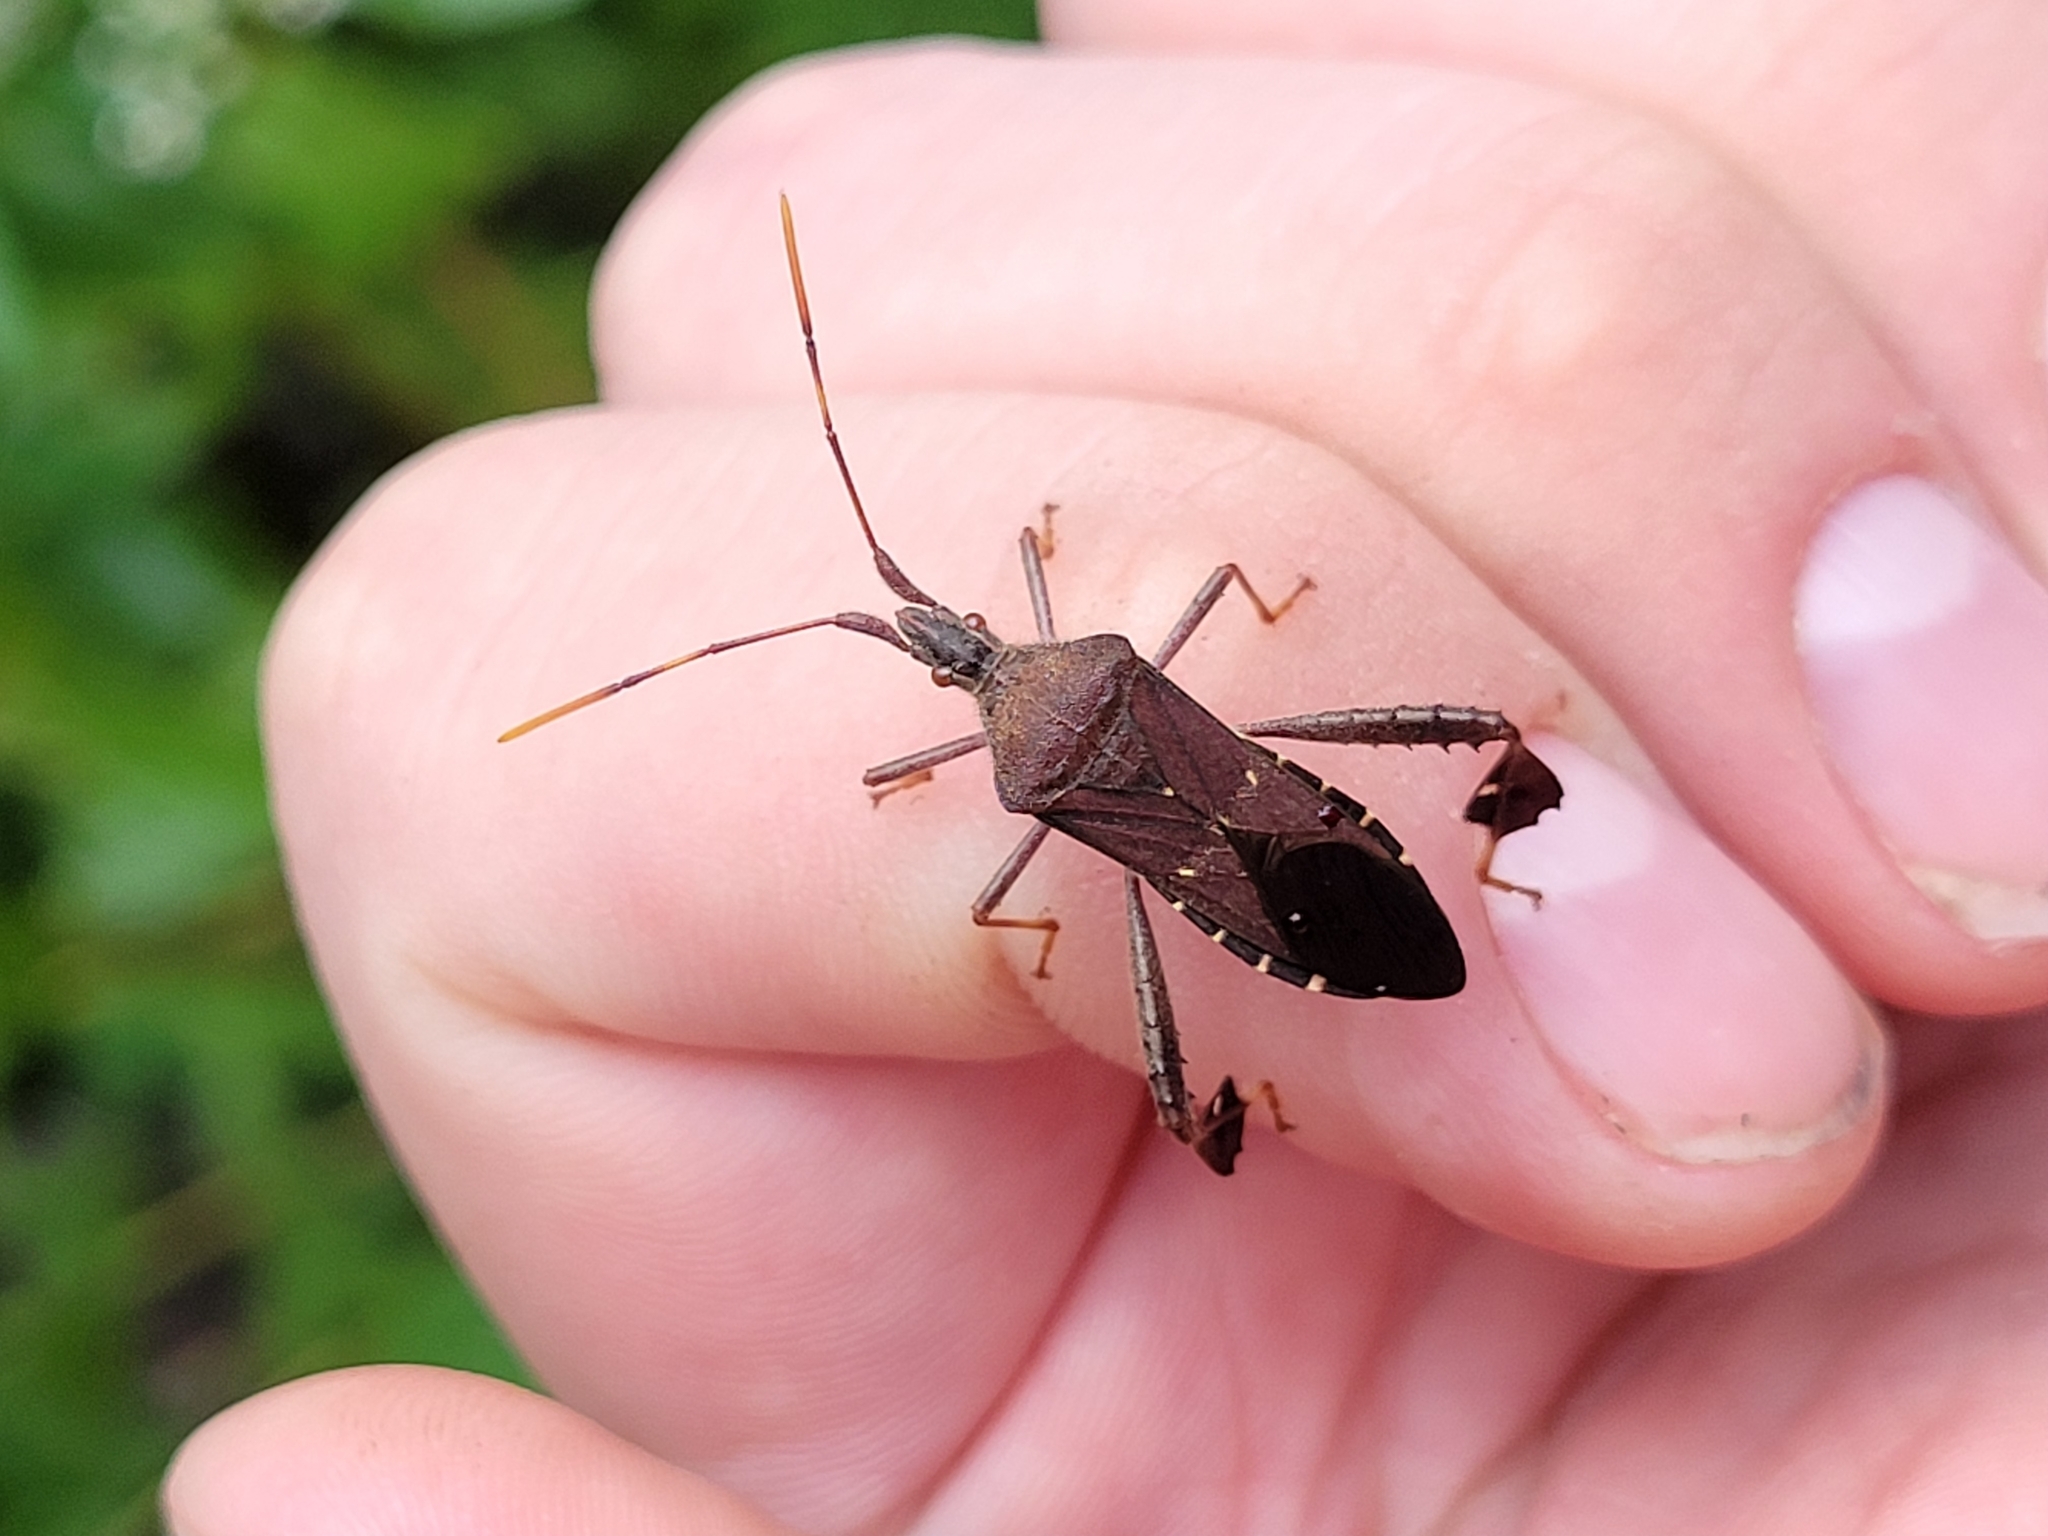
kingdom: Animalia
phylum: Arthropoda
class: Insecta
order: Hemiptera
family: Coreidae
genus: Leptoglossus
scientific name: Leptoglossus oppositus
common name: Northern leaf-footed bug
